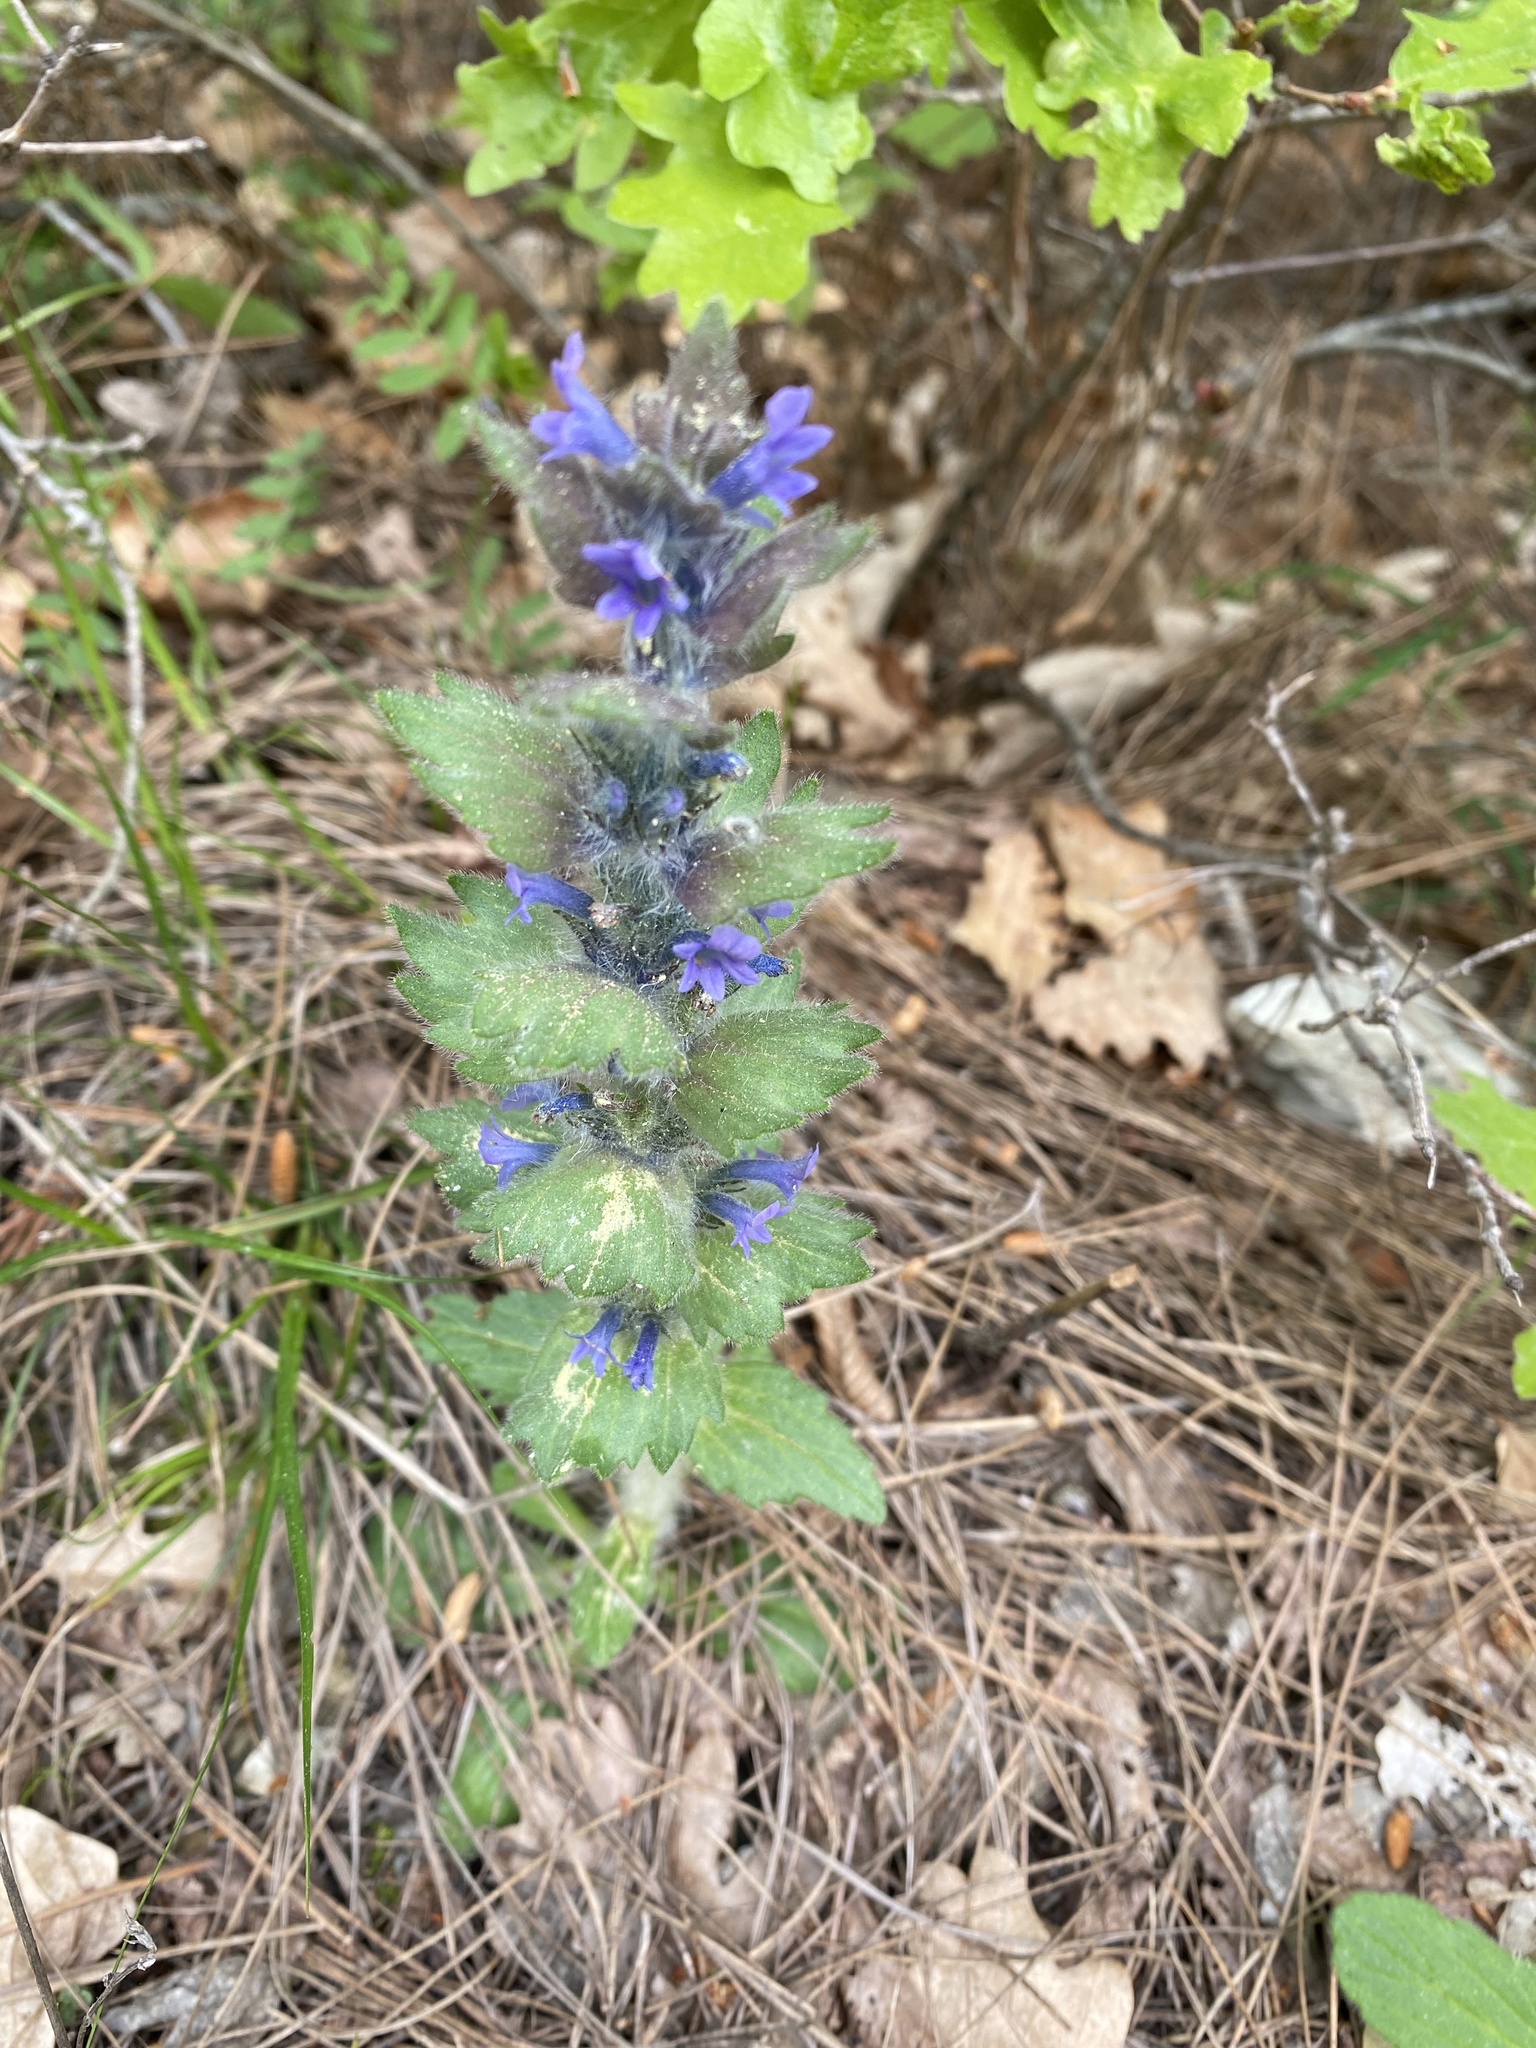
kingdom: Plantae
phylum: Tracheophyta
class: Magnoliopsida
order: Lamiales
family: Lamiaceae
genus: Ajuga
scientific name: Ajuga orientalis
